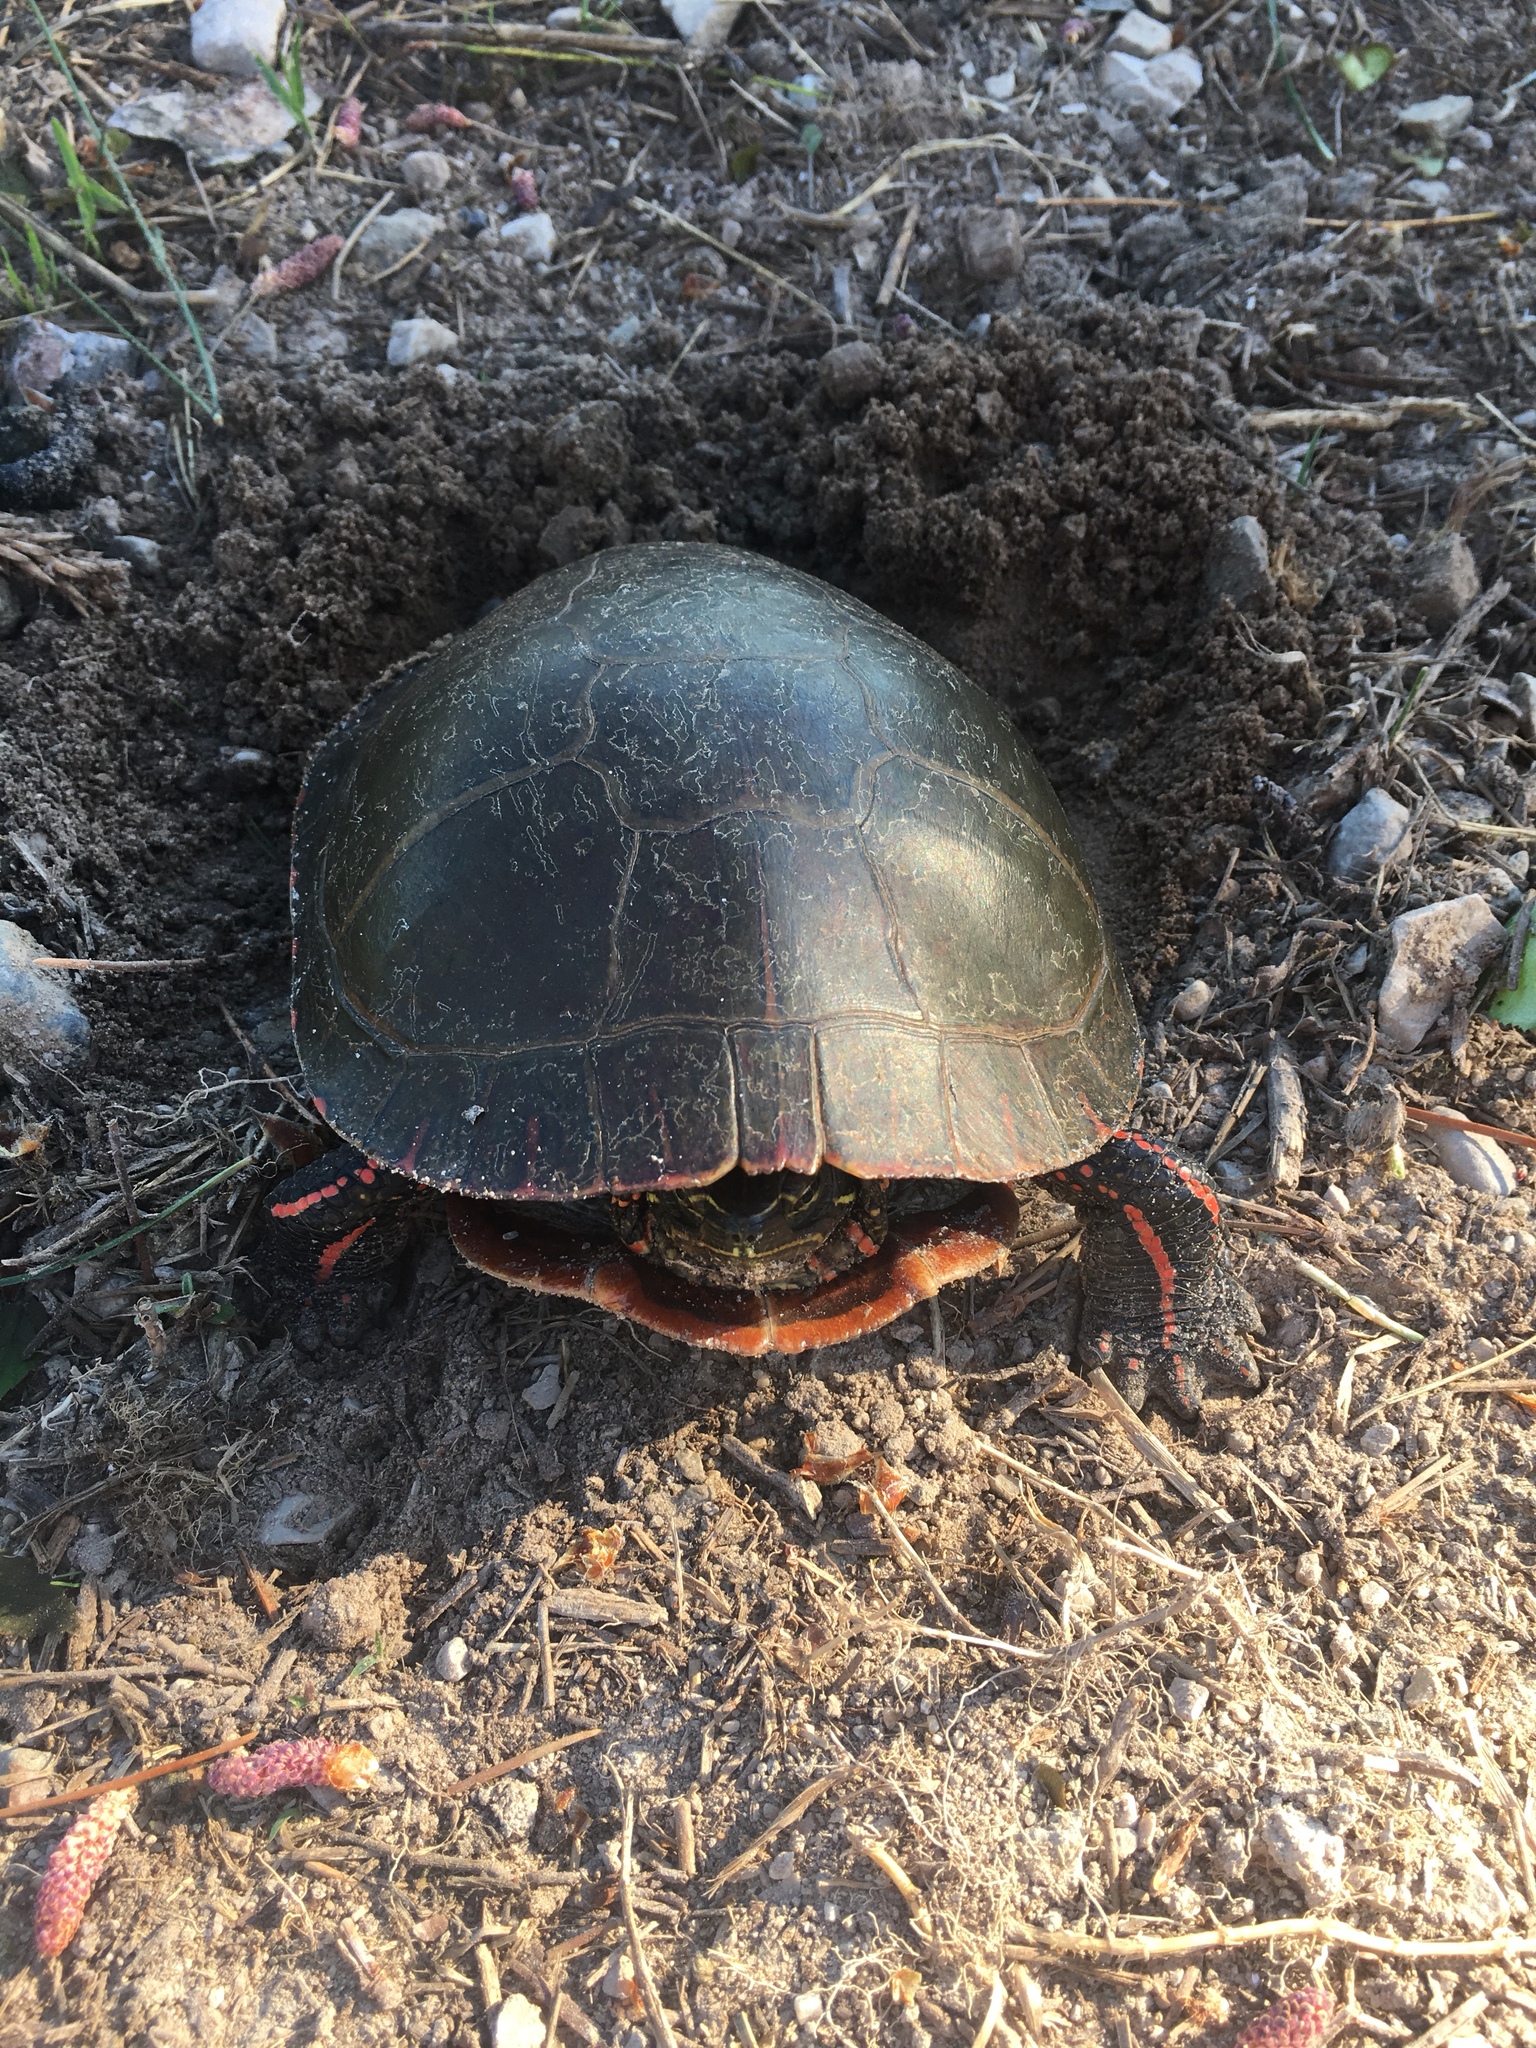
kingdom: Animalia
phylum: Chordata
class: Testudines
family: Emydidae
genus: Chrysemys
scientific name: Chrysemys picta
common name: Painted turtle
